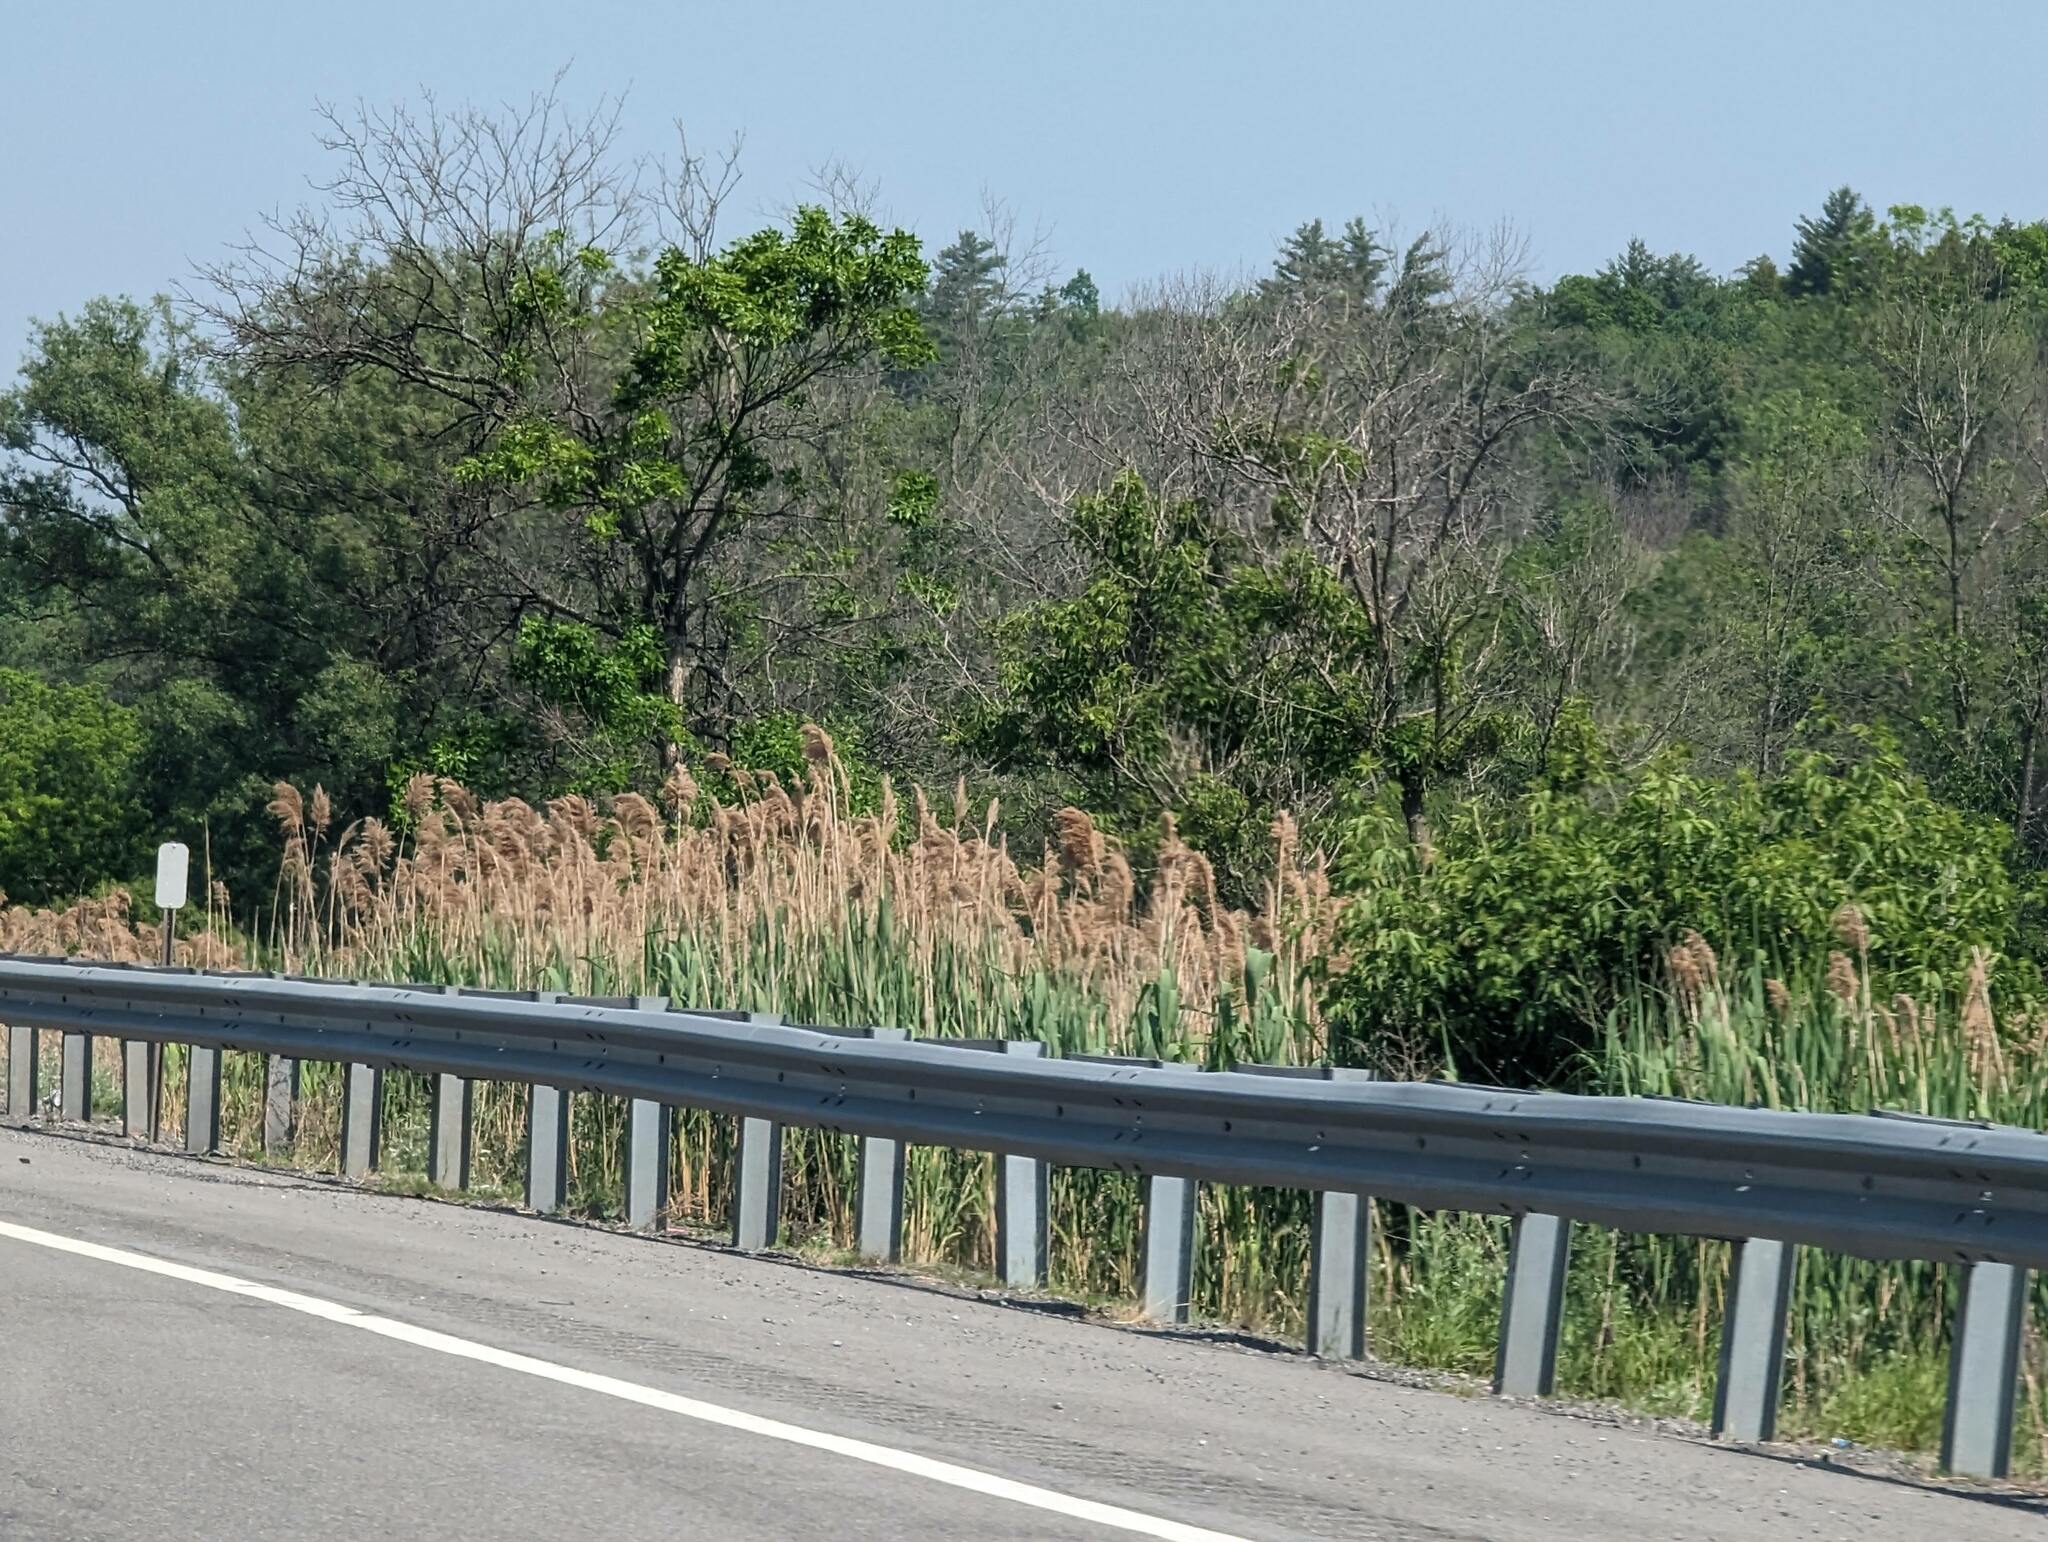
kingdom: Plantae
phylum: Tracheophyta
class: Liliopsida
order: Poales
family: Poaceae
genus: Phragmites
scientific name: Phragmites australis
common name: Common reed
